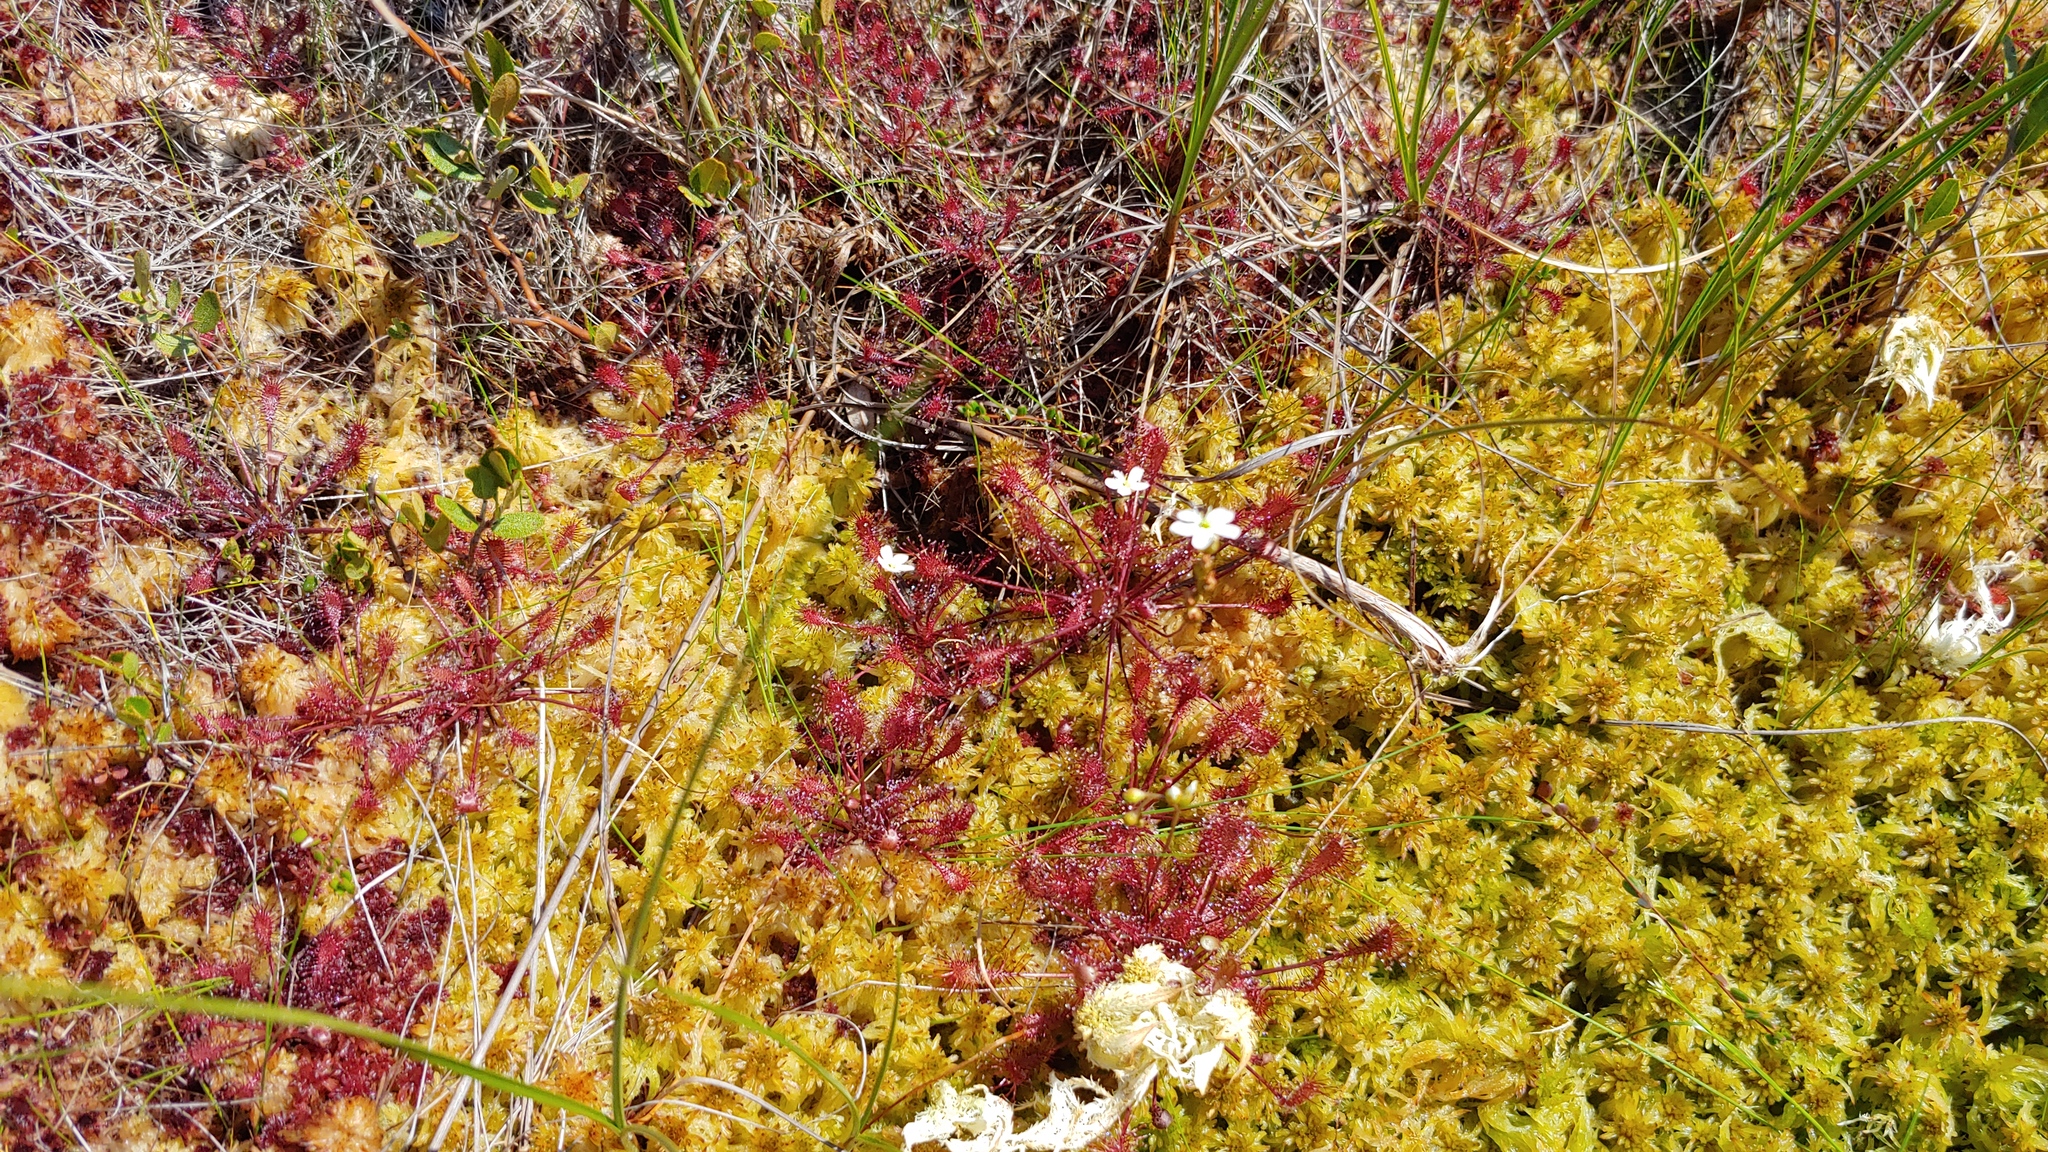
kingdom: Plantae
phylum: Tracheophyta
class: Magnoliopsida
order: Caryophyllales
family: Droseraceae
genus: Drosera
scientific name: Drosera intermedia
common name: Oblong-leaved sundew
